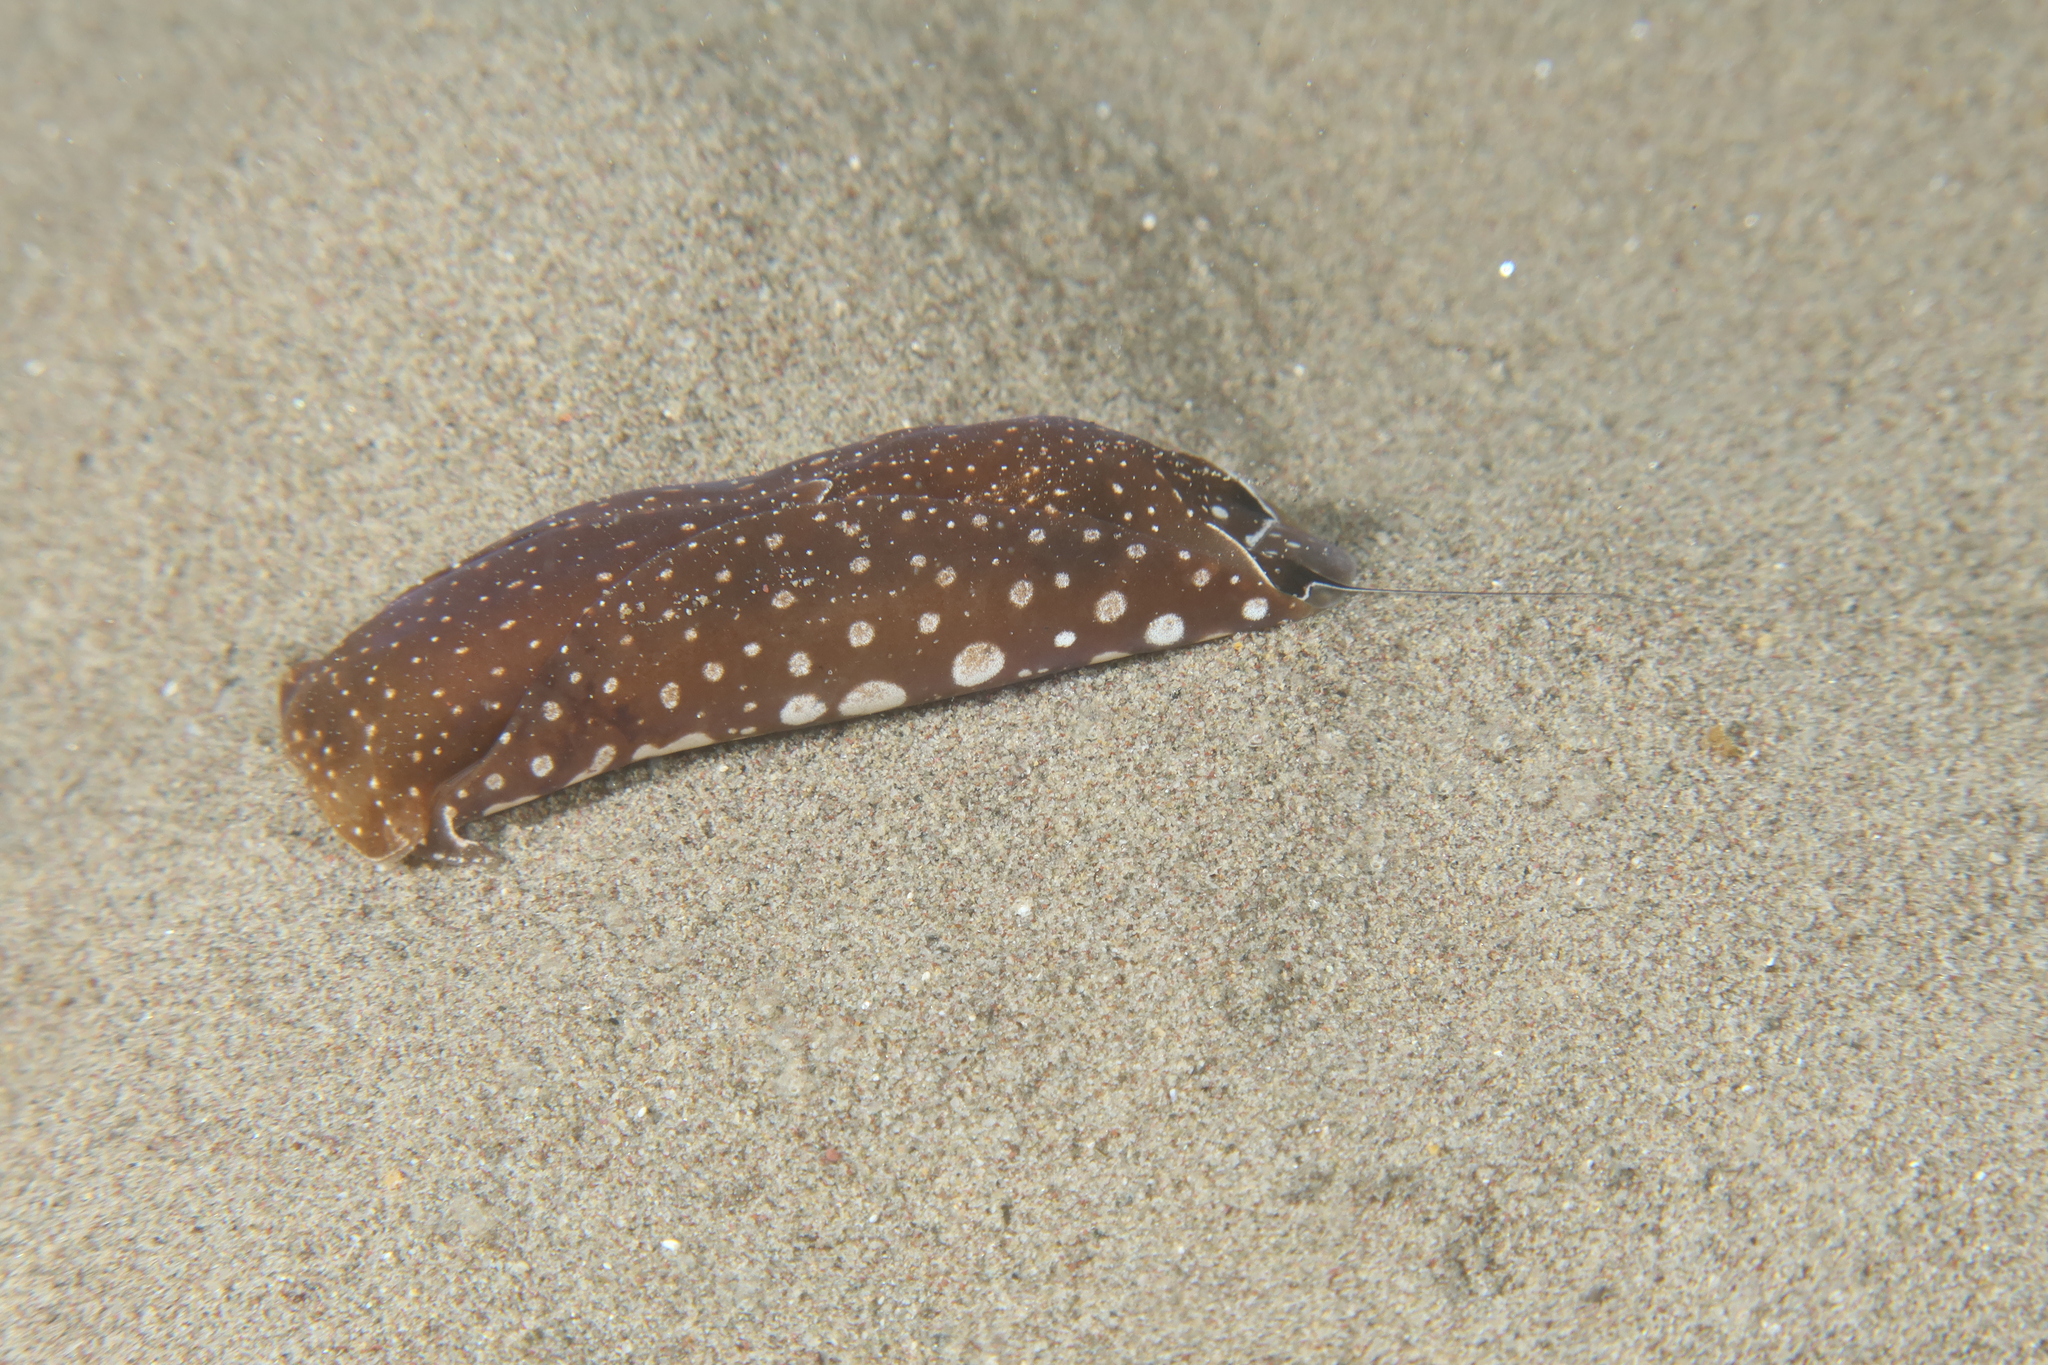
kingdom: Animalia
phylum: Mollusca
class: Gastropoda
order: Cephalaspidea
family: Aglajidae
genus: Aglaja
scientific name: Aglaja tricolorata
